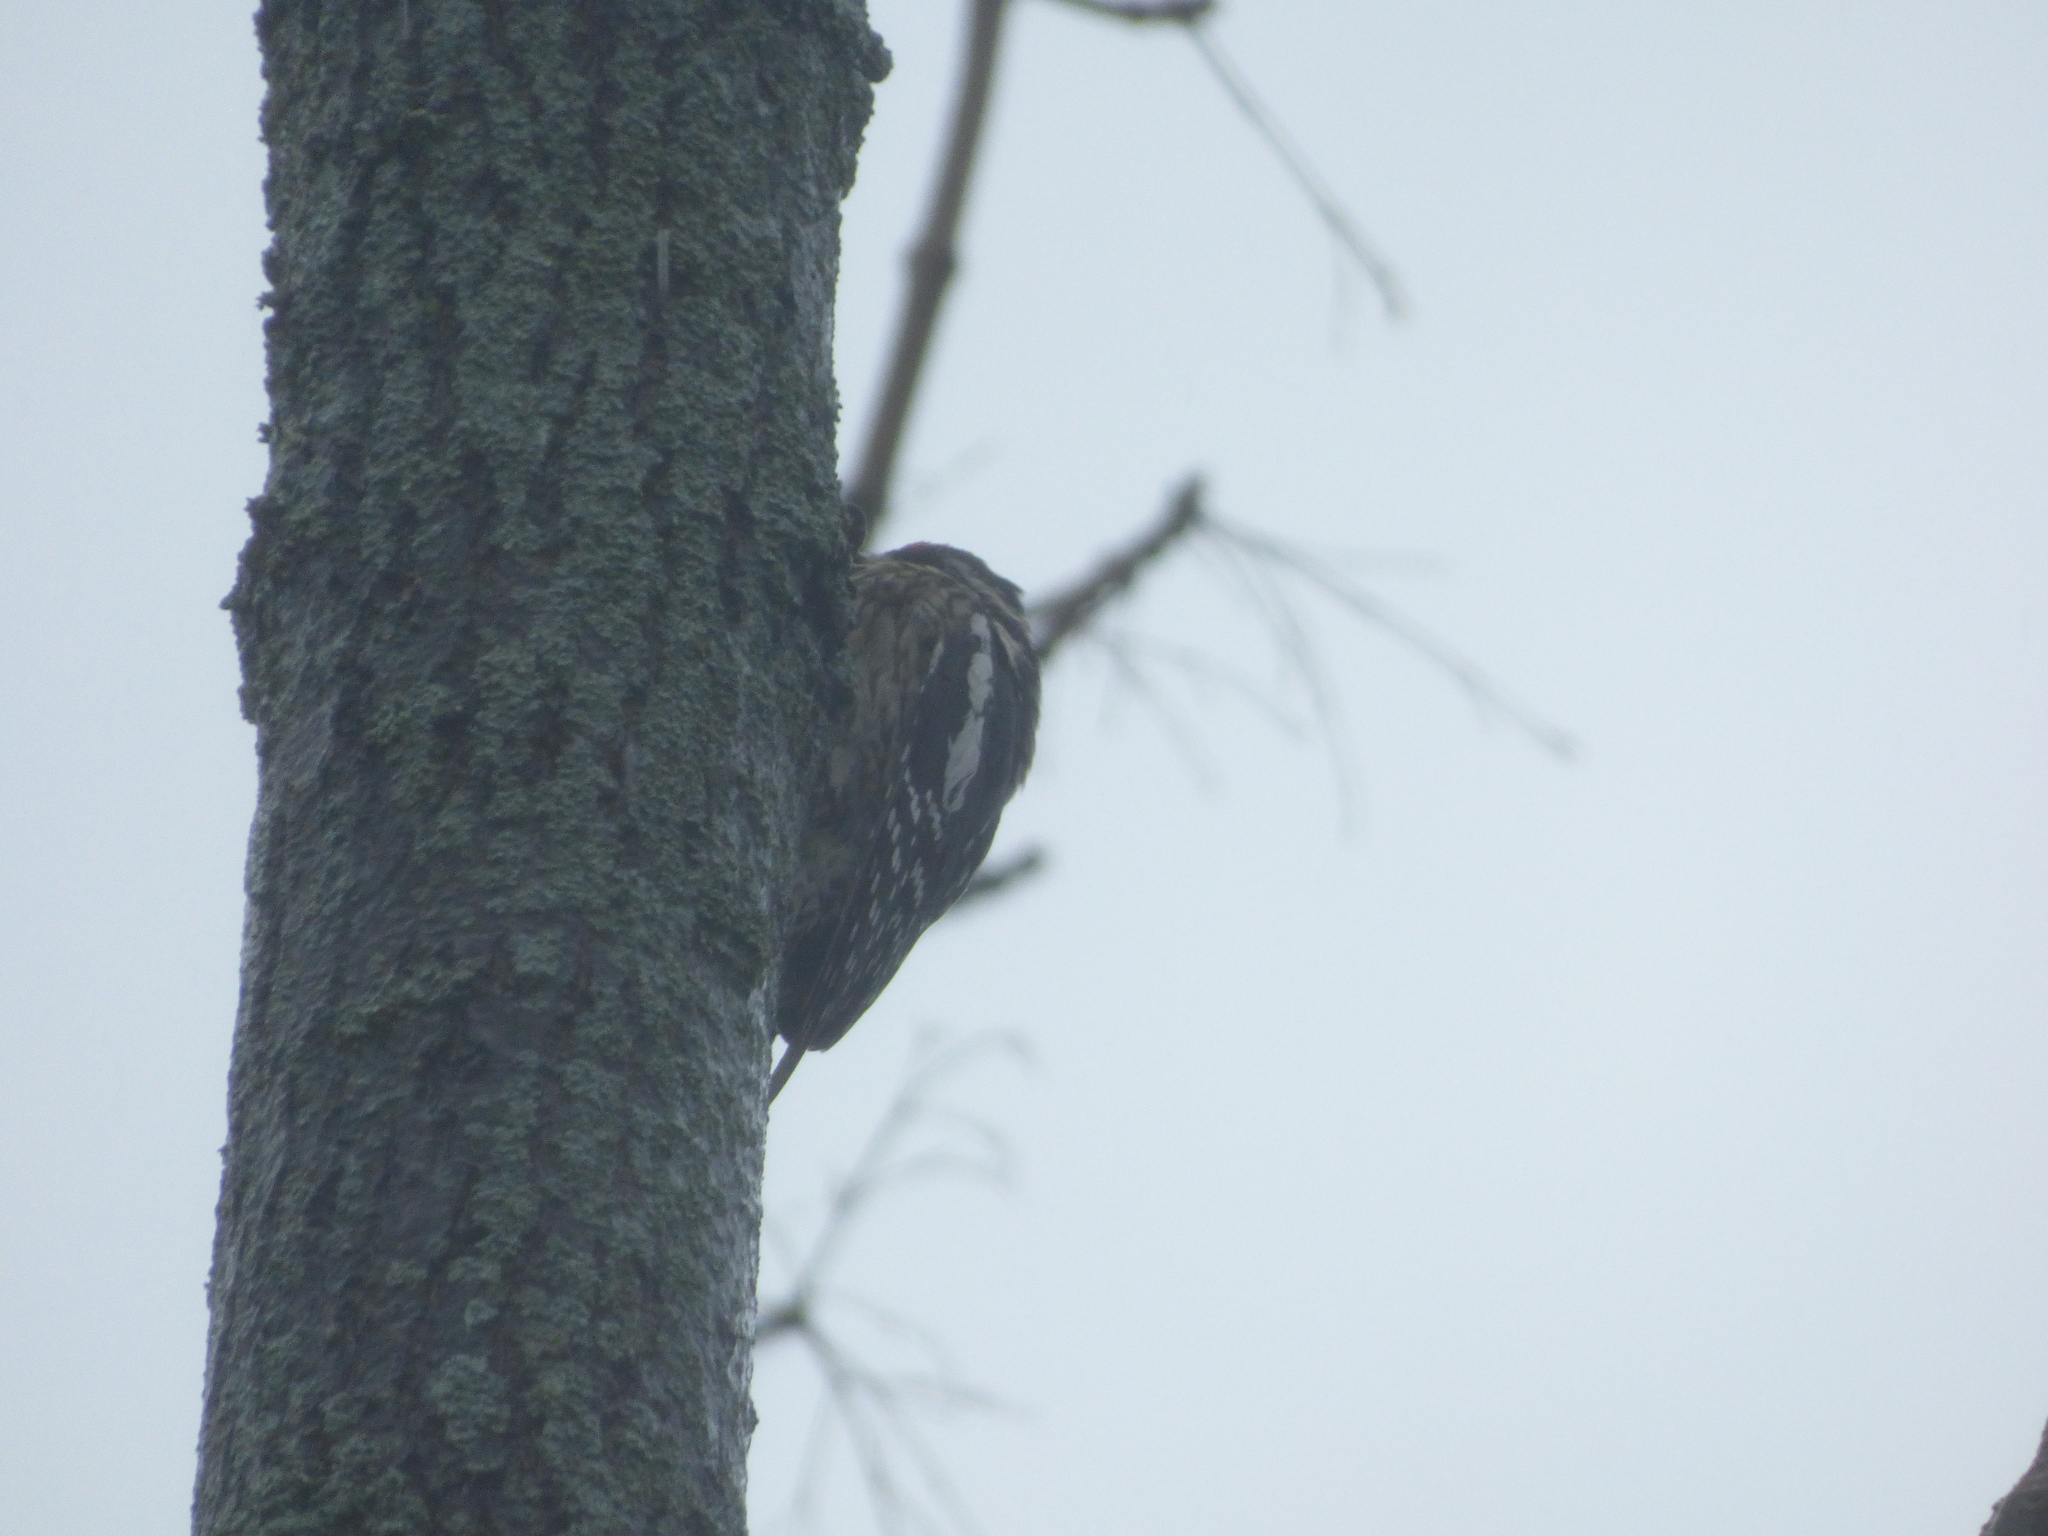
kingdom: Animalia
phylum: Chordata
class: Aves
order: Piciformes
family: Picidae
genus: Sphyrapicus
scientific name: Sphyrapicus varius
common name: Yellow-bellied sapsucker
